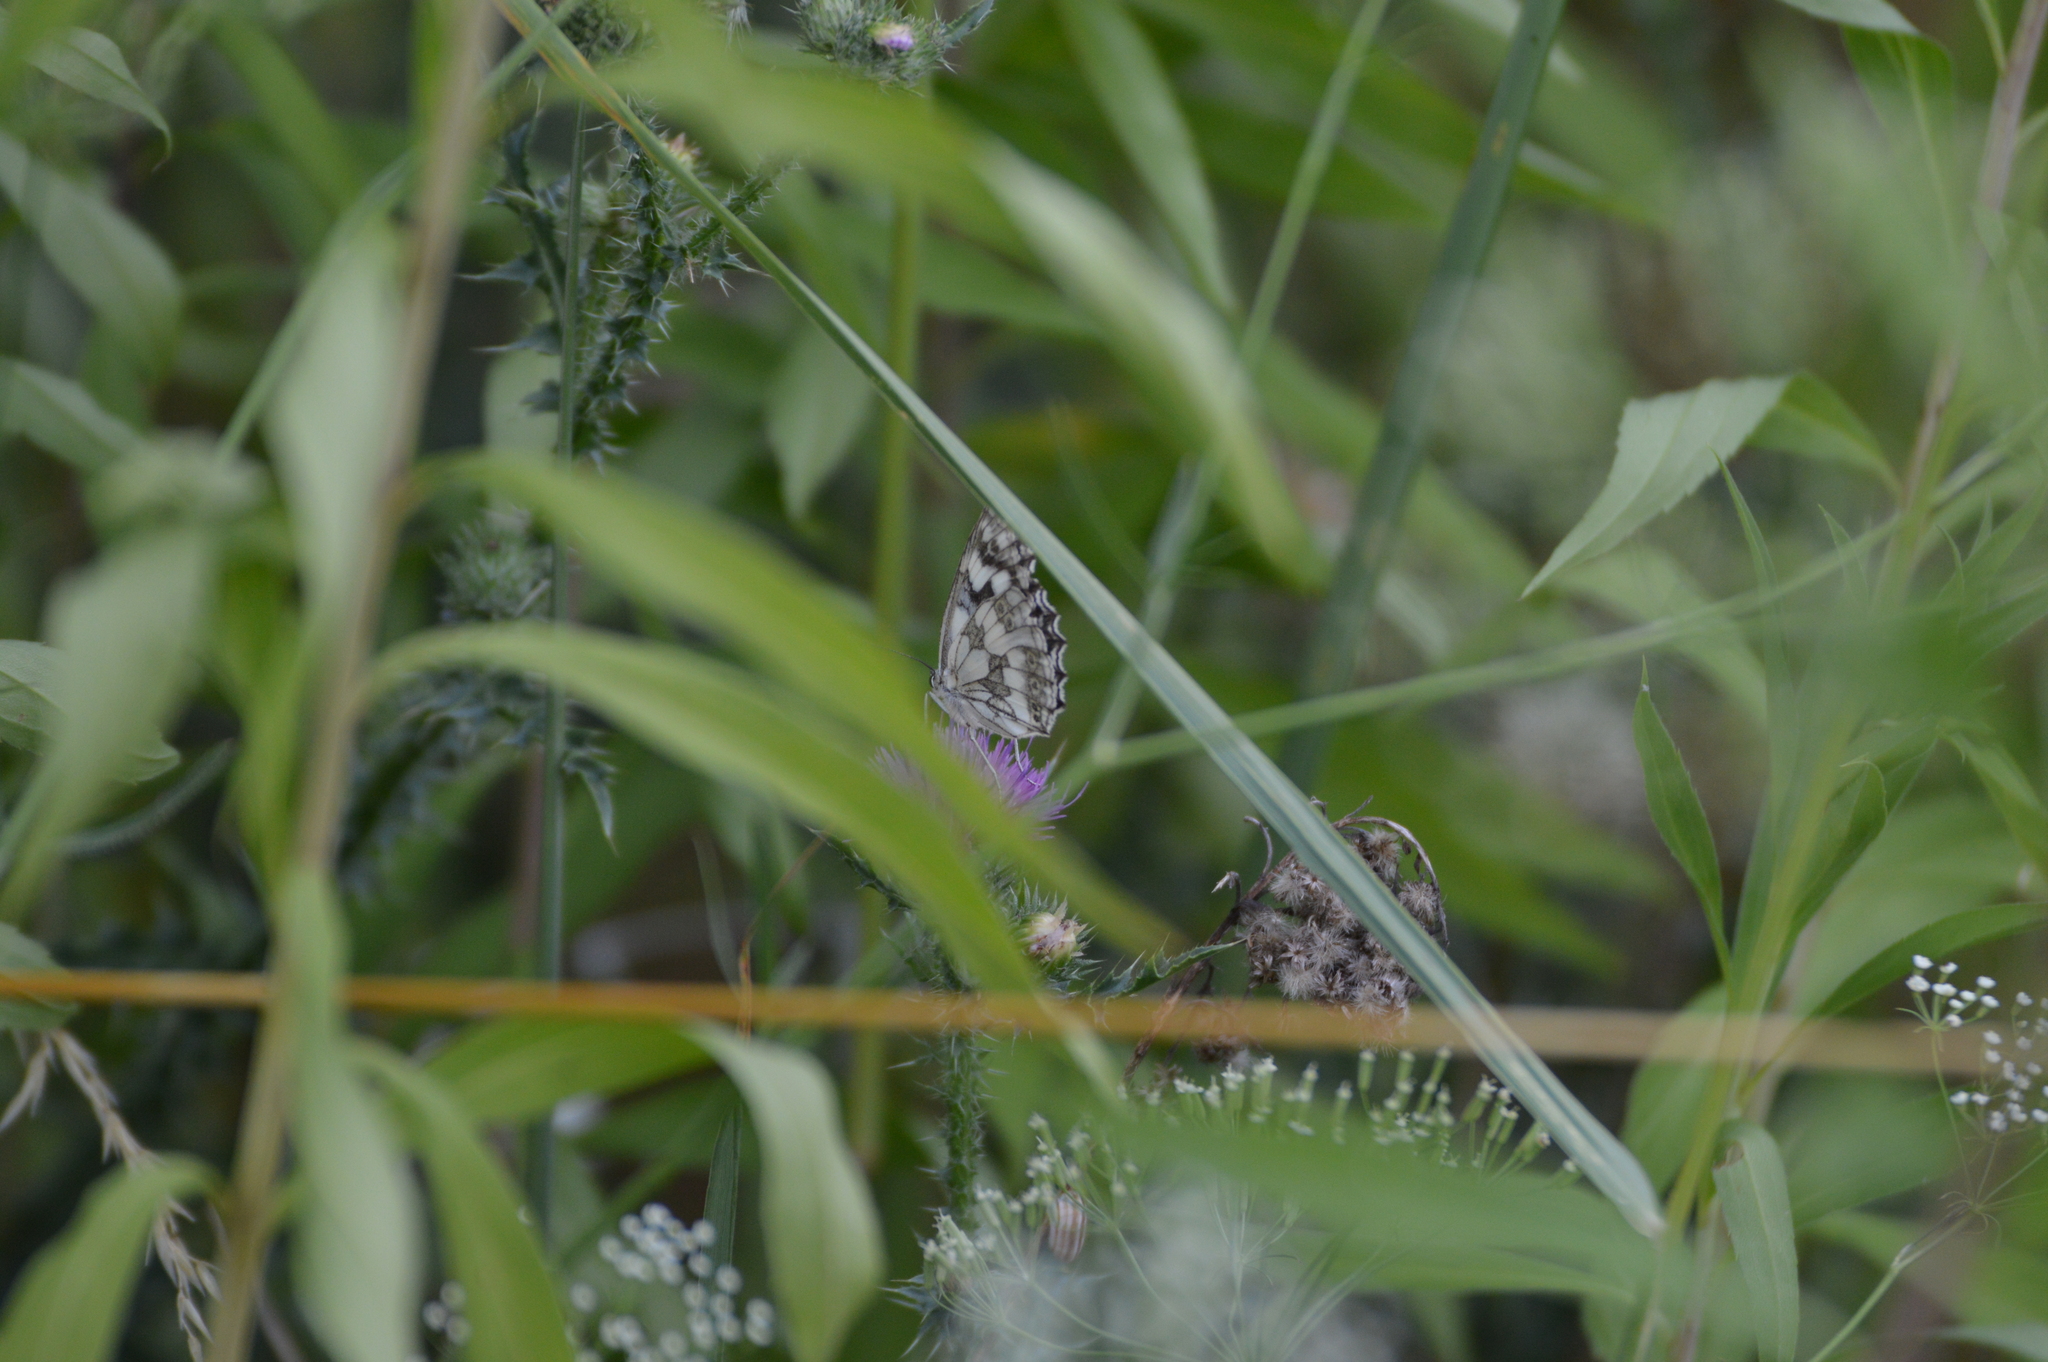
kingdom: Animalia
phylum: Arthropoda
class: Insecta
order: Lepidoptera
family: Nymphalidae
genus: Melanargia
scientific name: Melanargia galathea
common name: Marbled white
